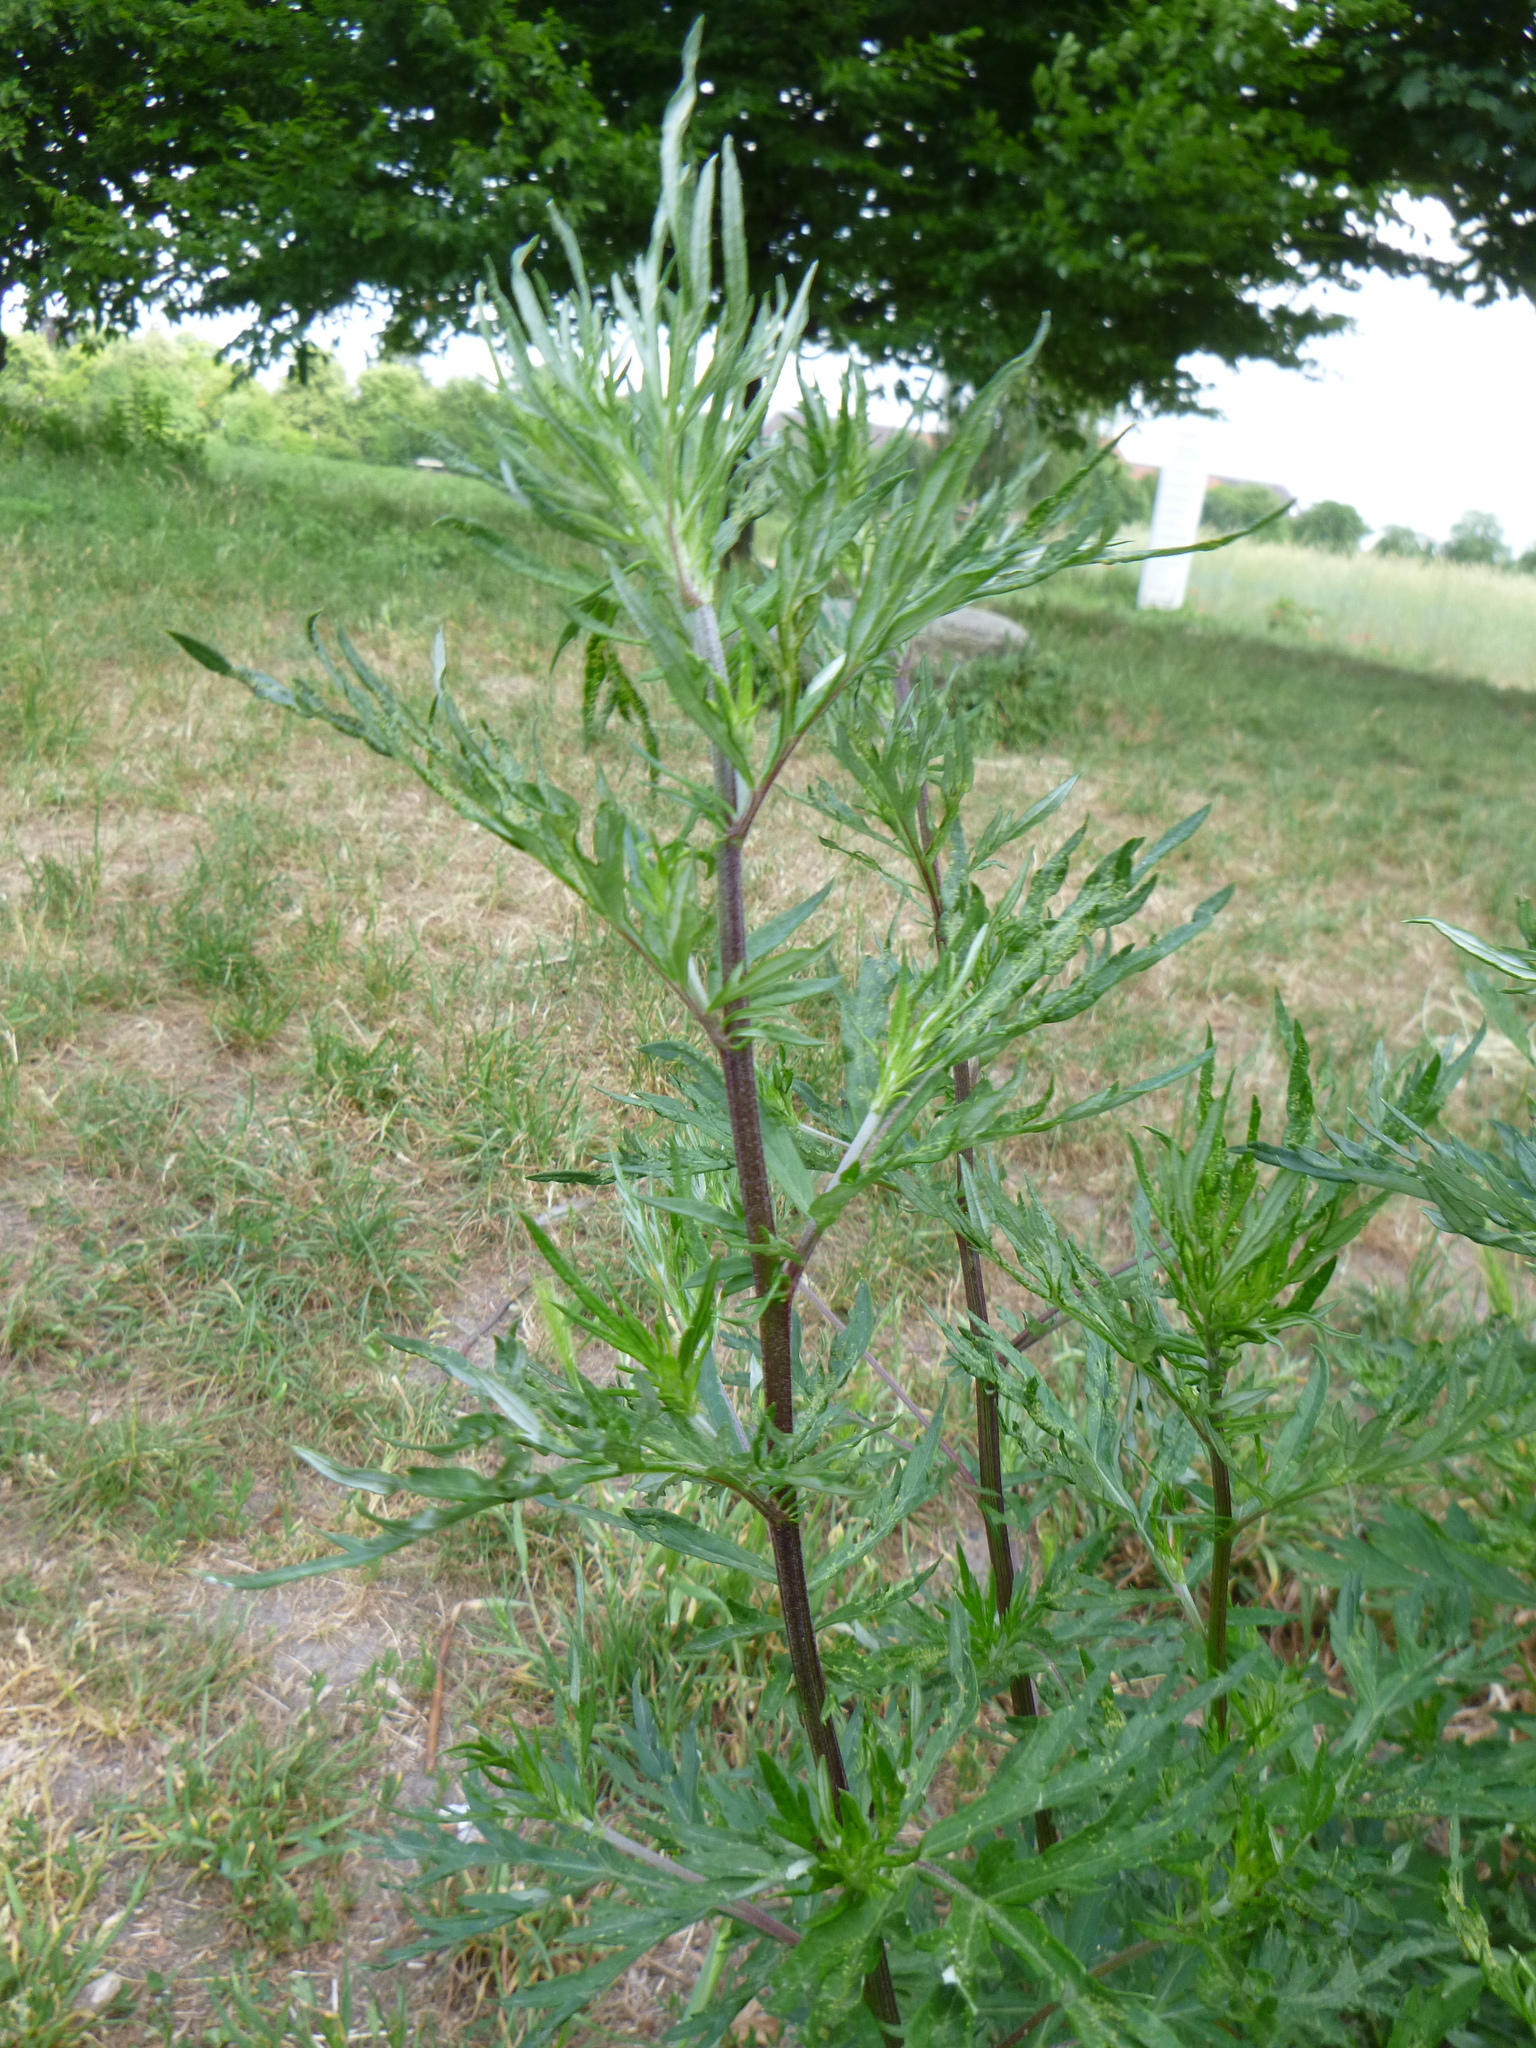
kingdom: Plantae
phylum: Tracheophyta
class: Magnoliopsida
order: Asterales
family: Asteraceae
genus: Artemisia
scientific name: Artemisia vulgaris
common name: Mugwort
